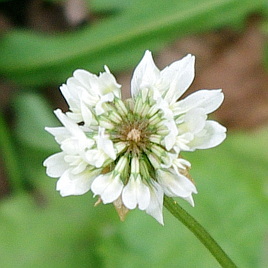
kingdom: Plantae
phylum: Tracheophyta
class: Magnoliopsida
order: Fabales
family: Fabaceae
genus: Trifolium
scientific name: Trifolium repens
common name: White clover
